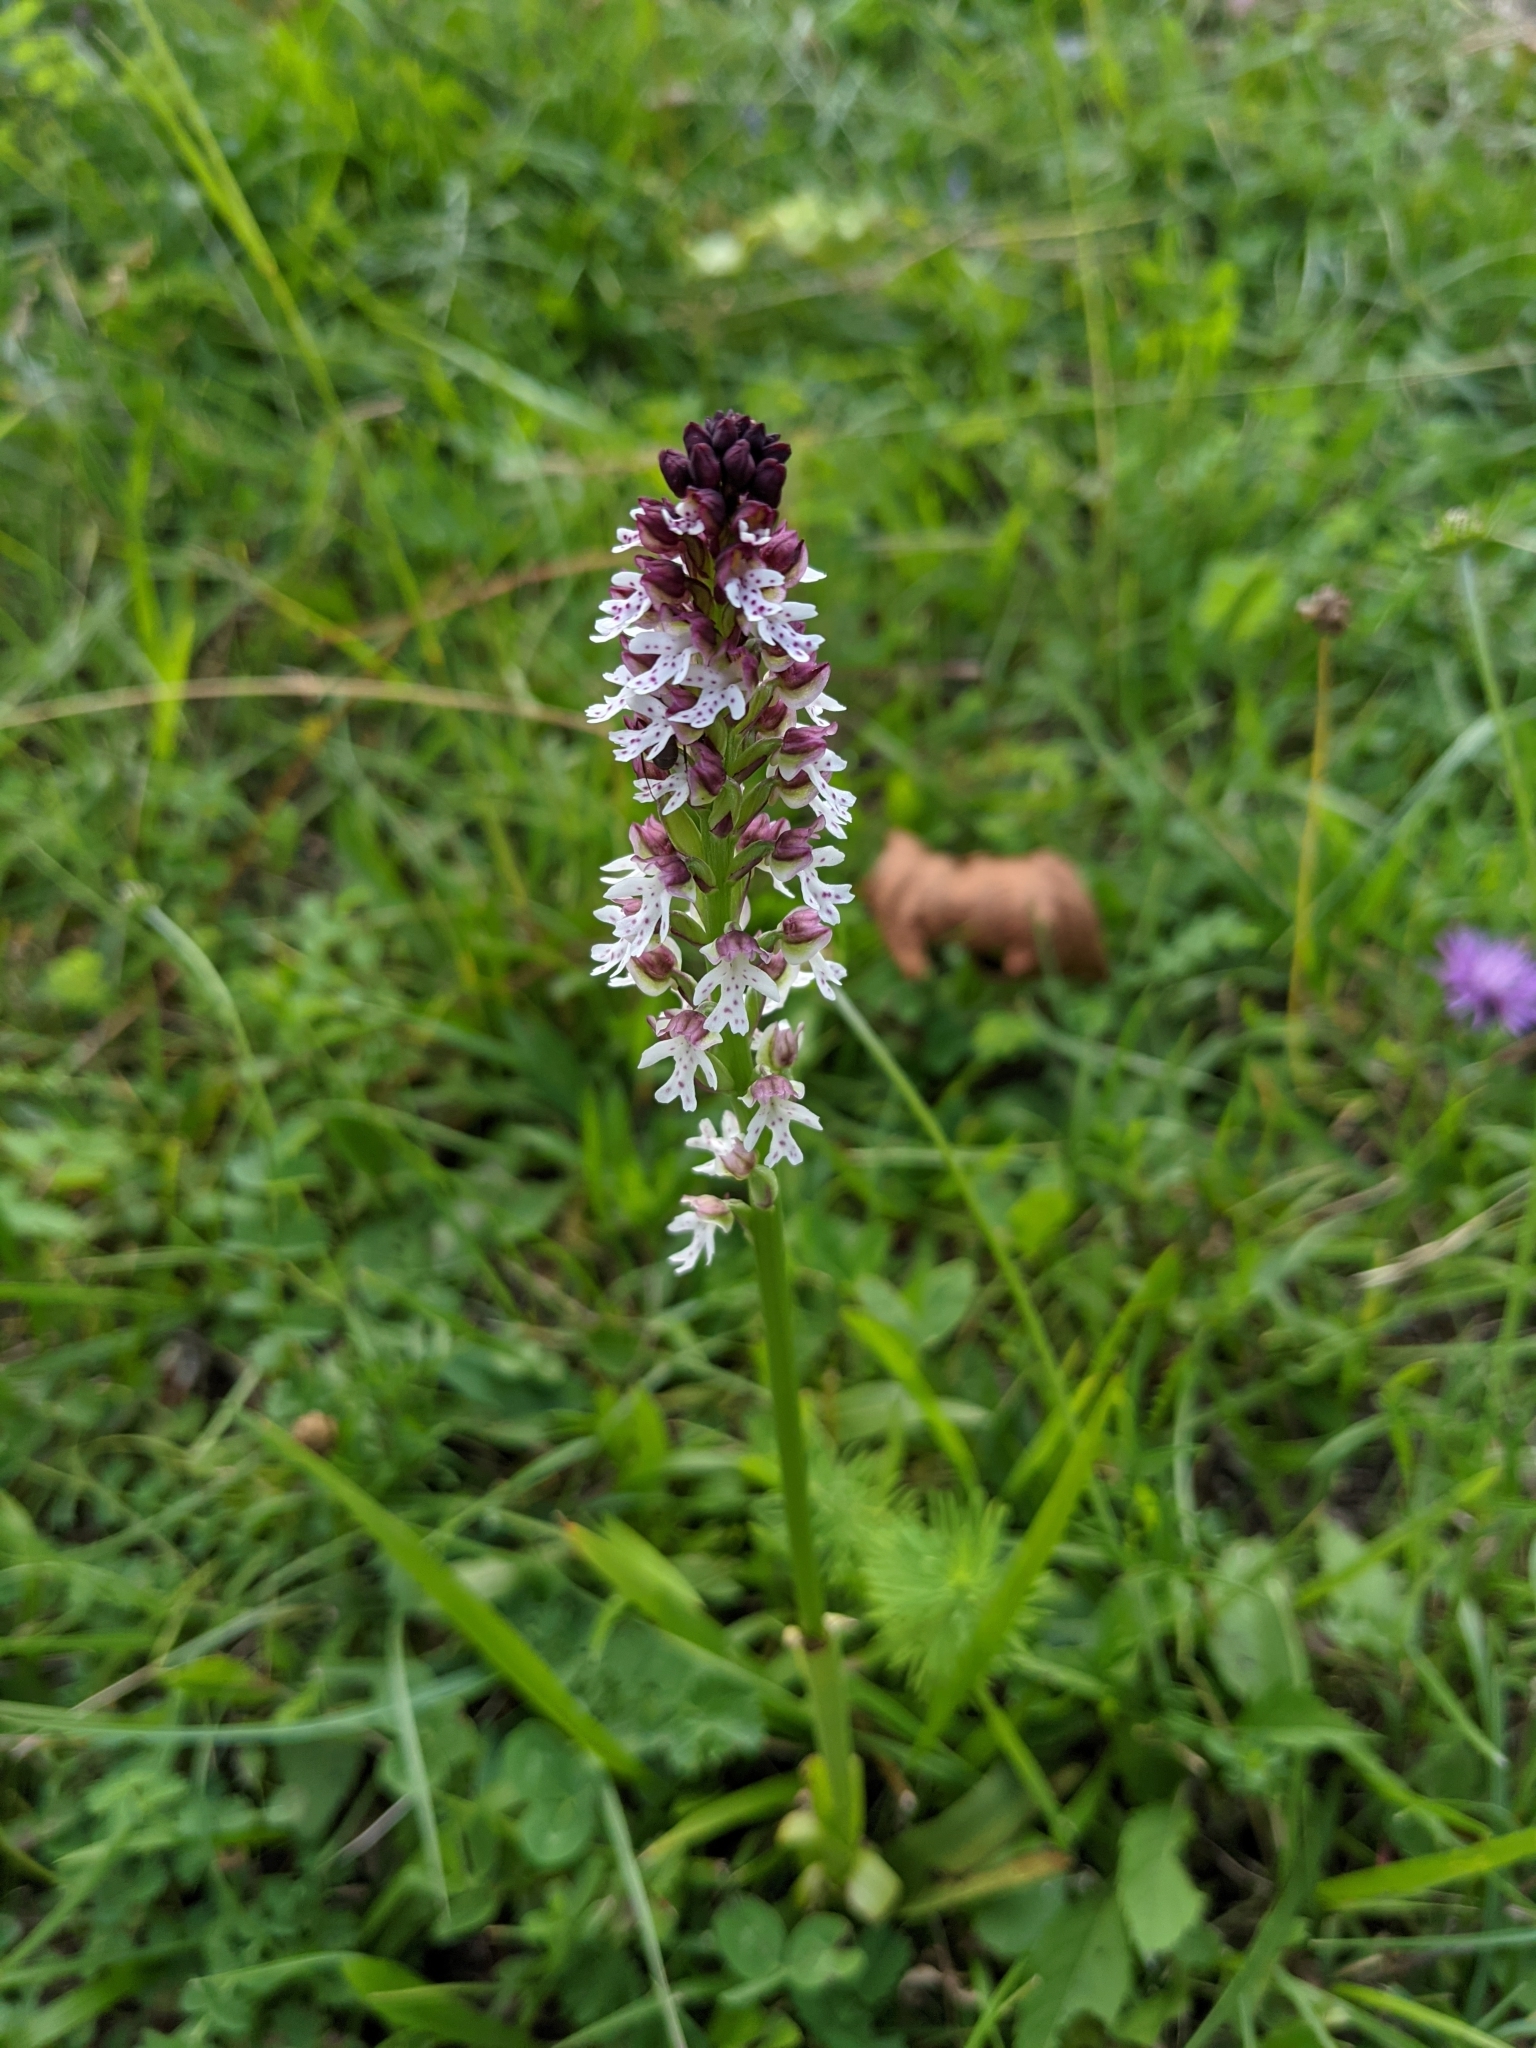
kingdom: Plantae
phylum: Tracheophyta
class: Liliopsida
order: Asparagales
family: Orchidaceae
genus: Neotinea
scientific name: Neotinea ustulata
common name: Burnt orchid
